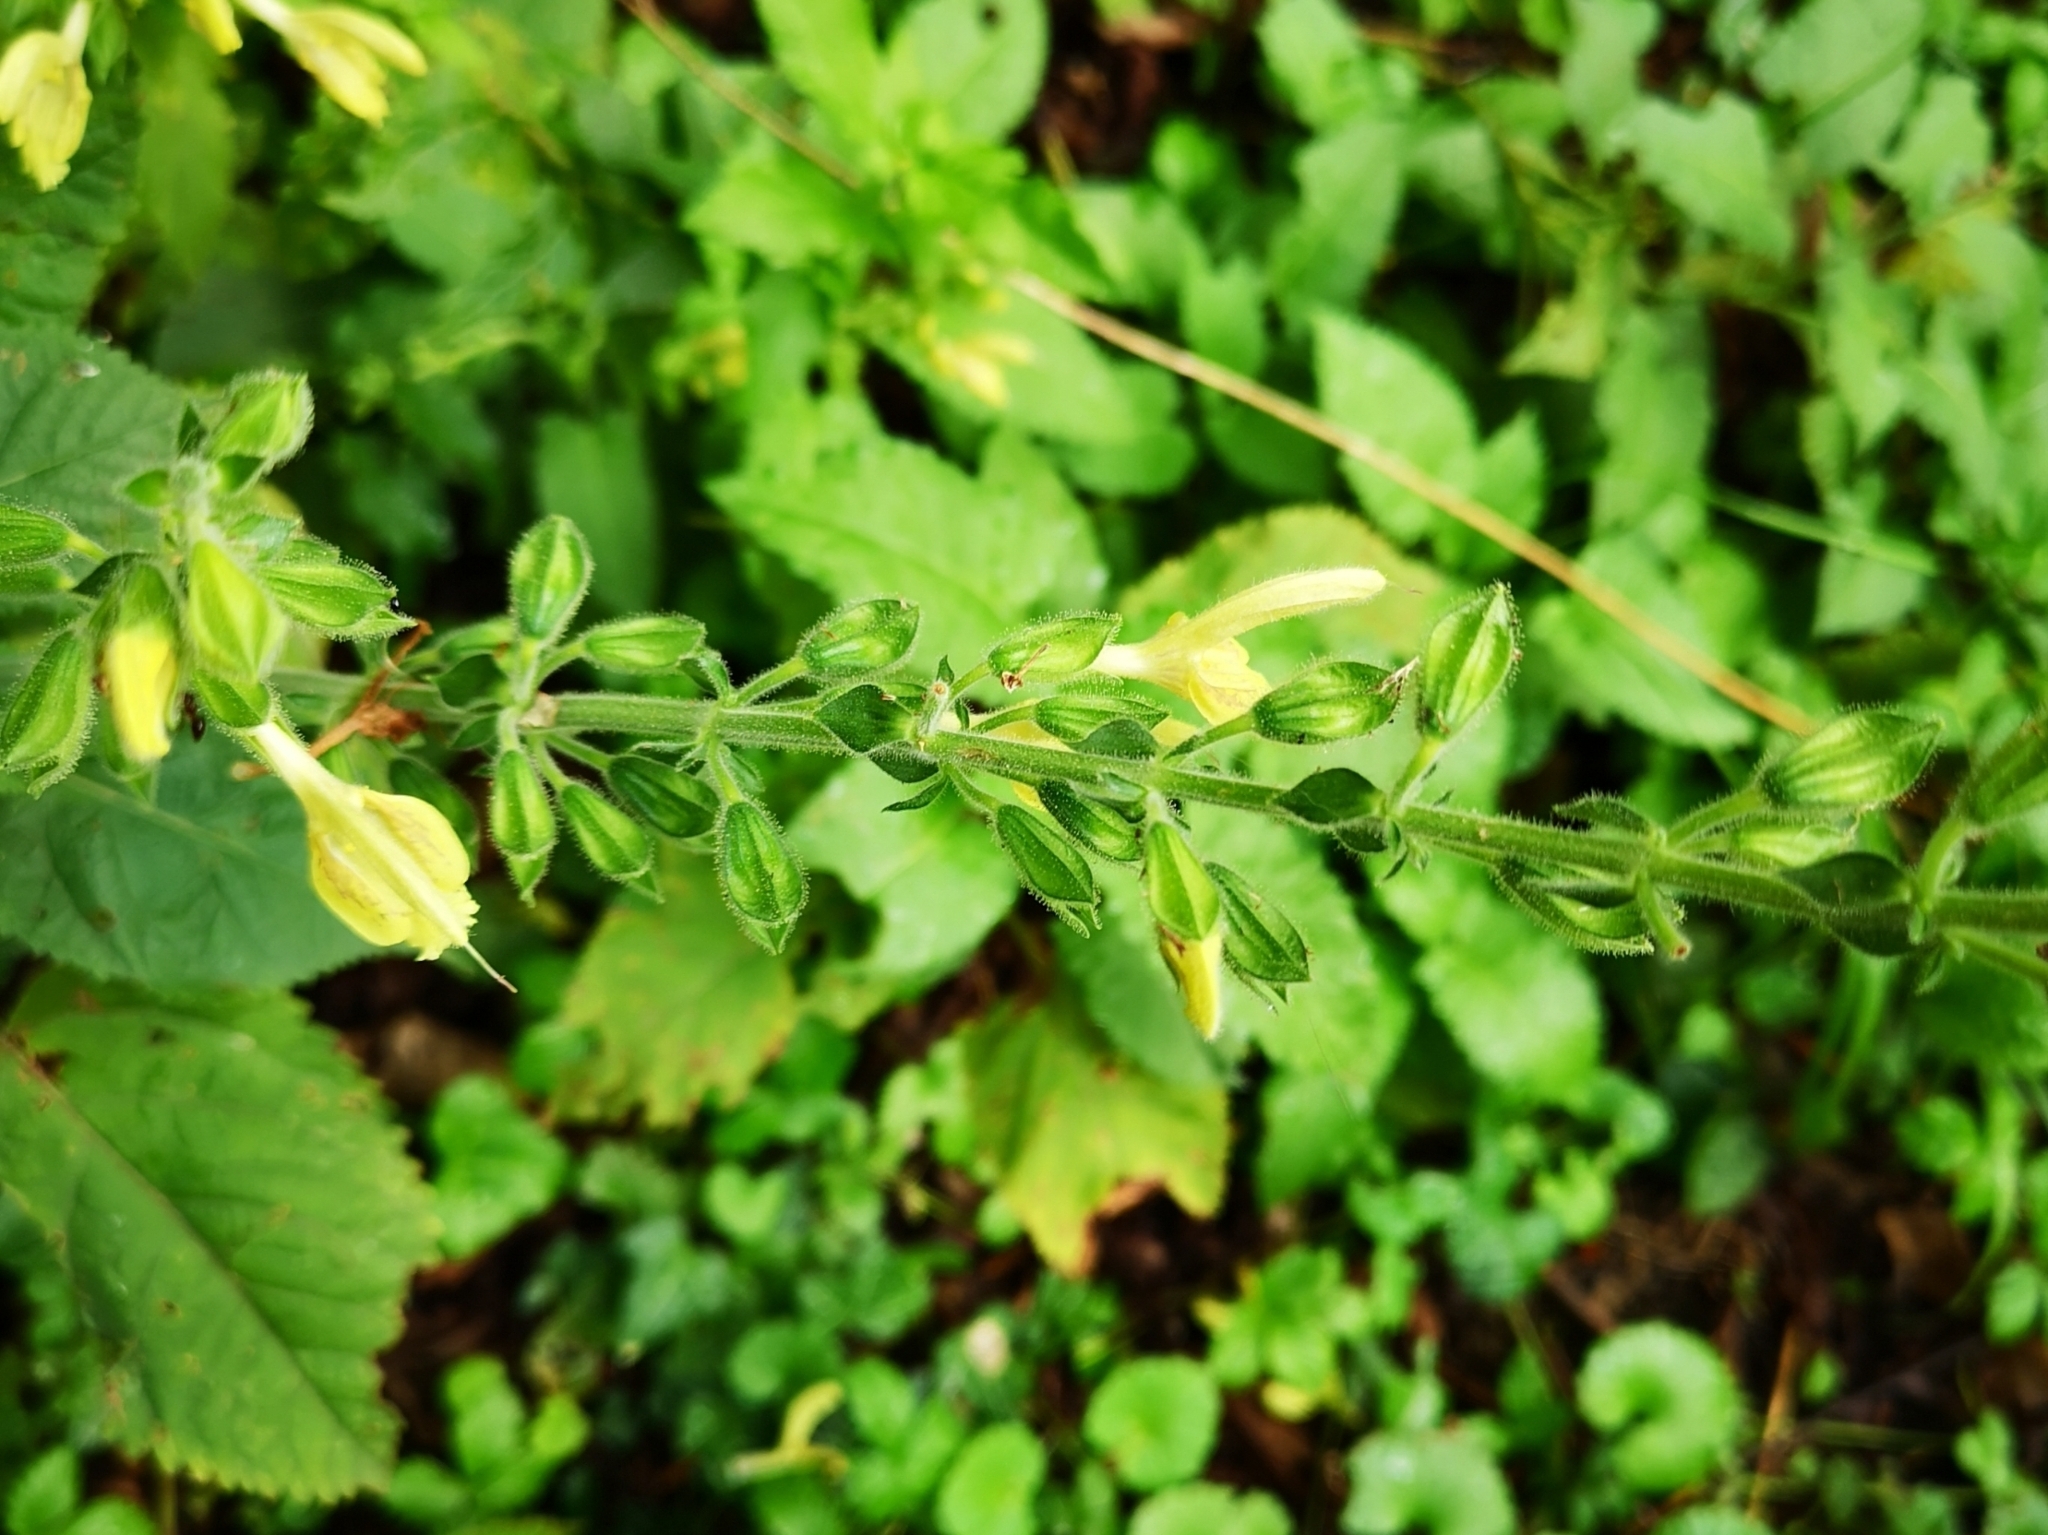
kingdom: Plantae
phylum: Tracheophyta
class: Magnoliopsida
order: Lamiales
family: Lamiaceae
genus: Salvia
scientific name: Salvia glutinosa
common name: Sticky clary
